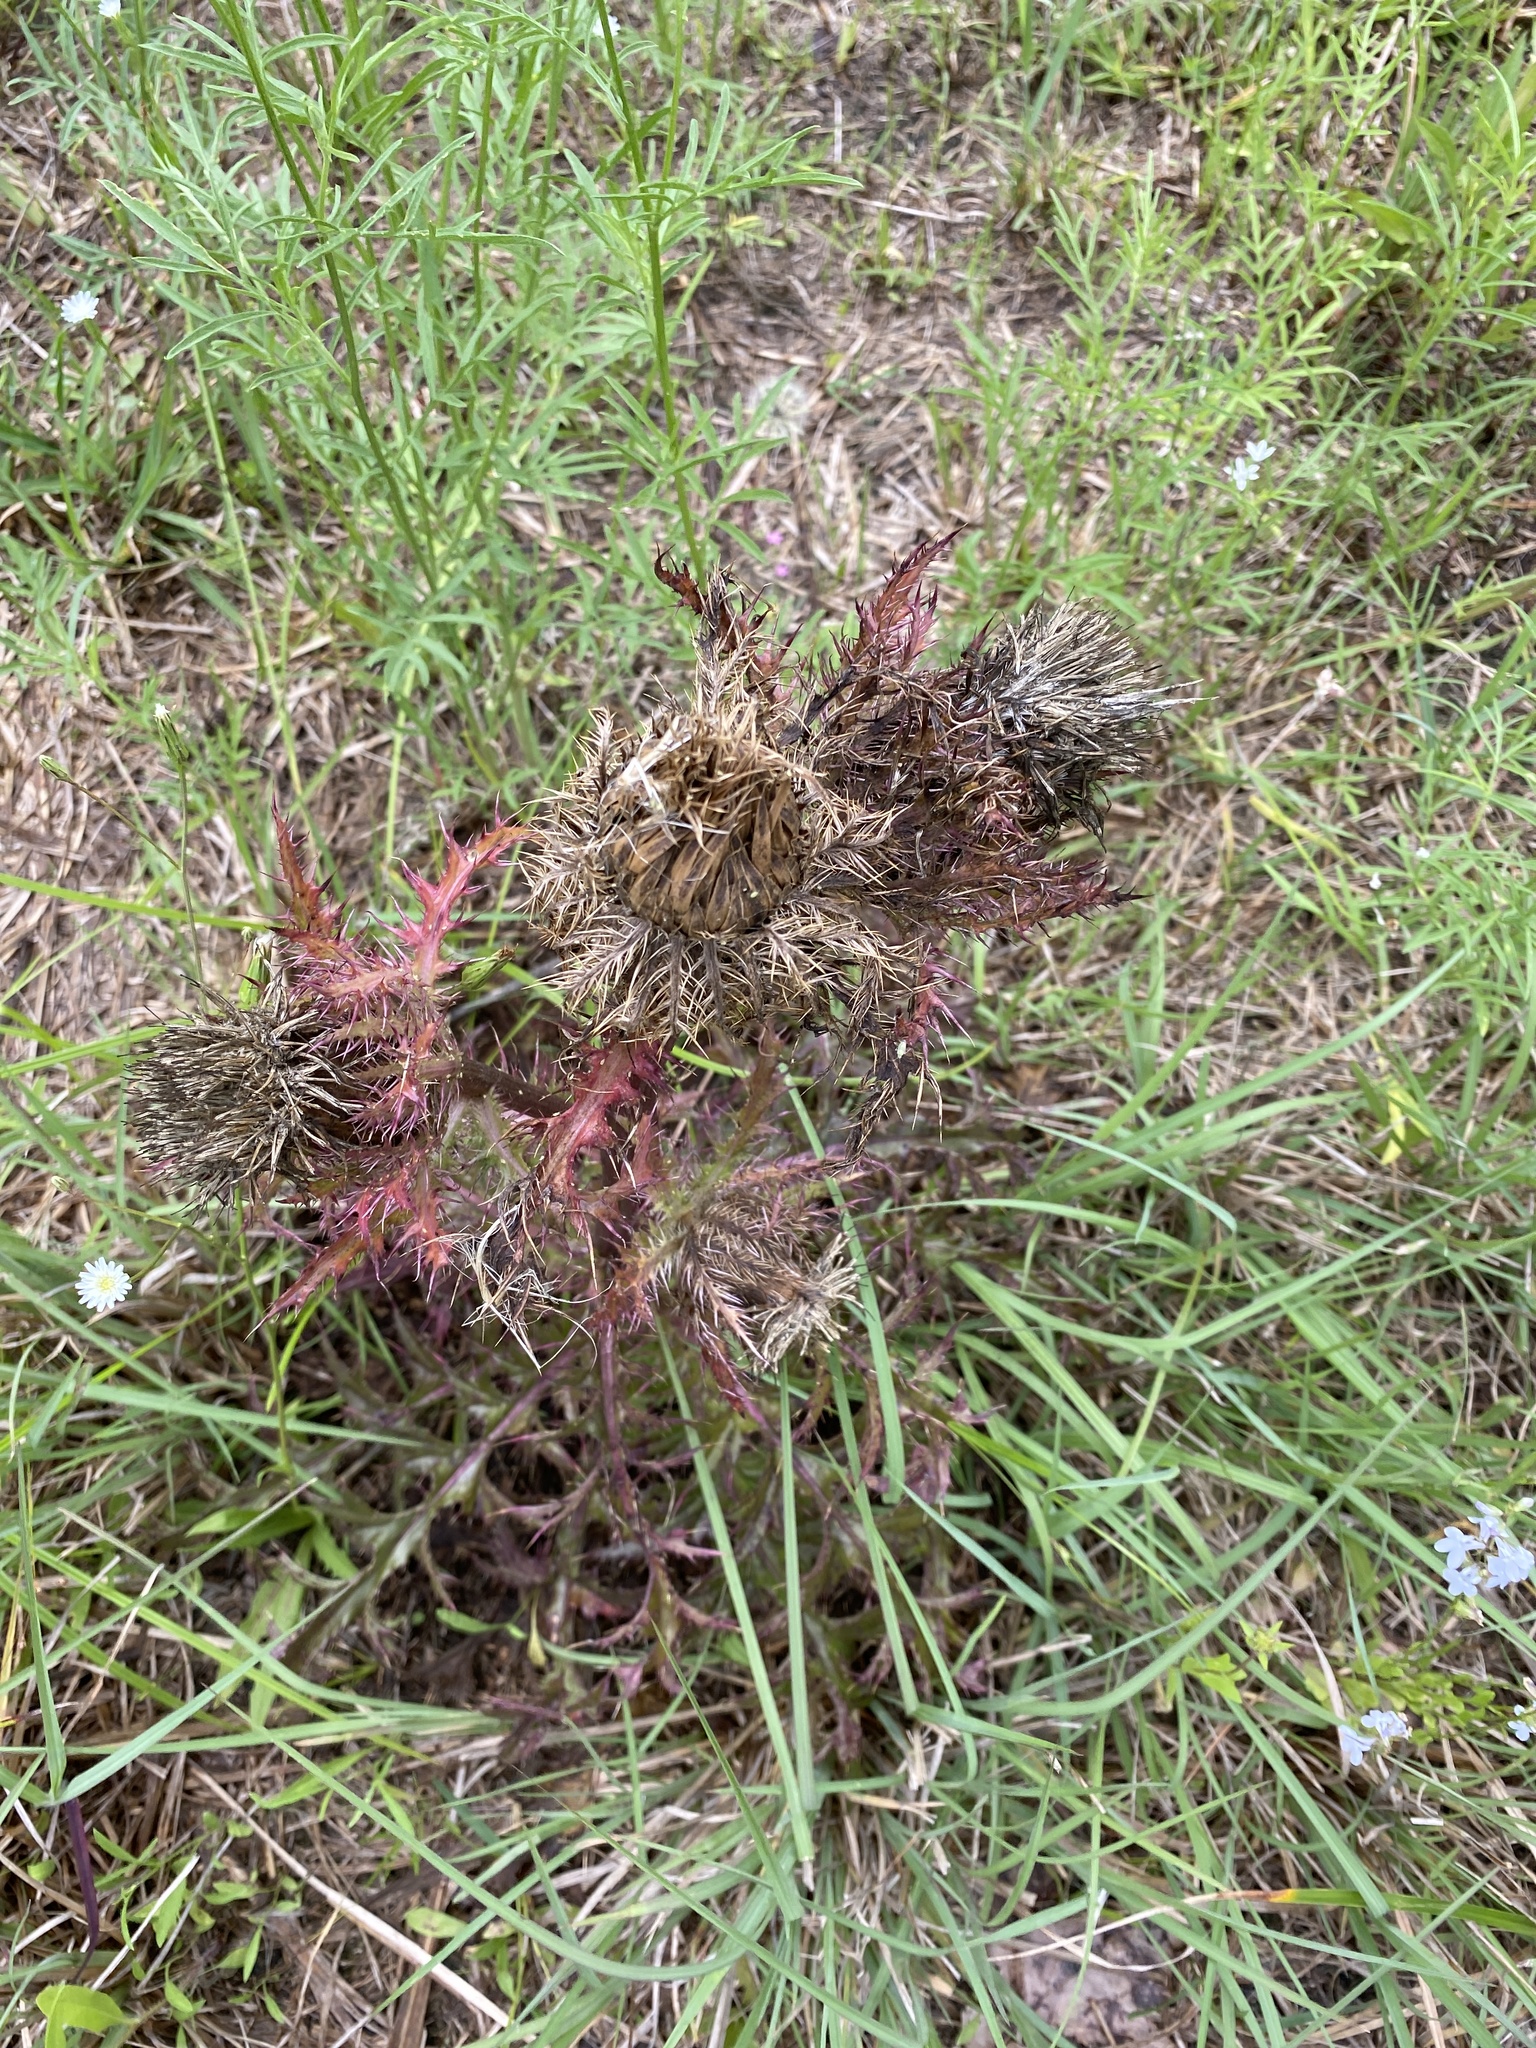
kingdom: Plantae
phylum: Tracheophyta
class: Magnoliopsida
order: Asterales
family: Asteraceae
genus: Cirsium
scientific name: Cirsium horridulum
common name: Bristly thistle
